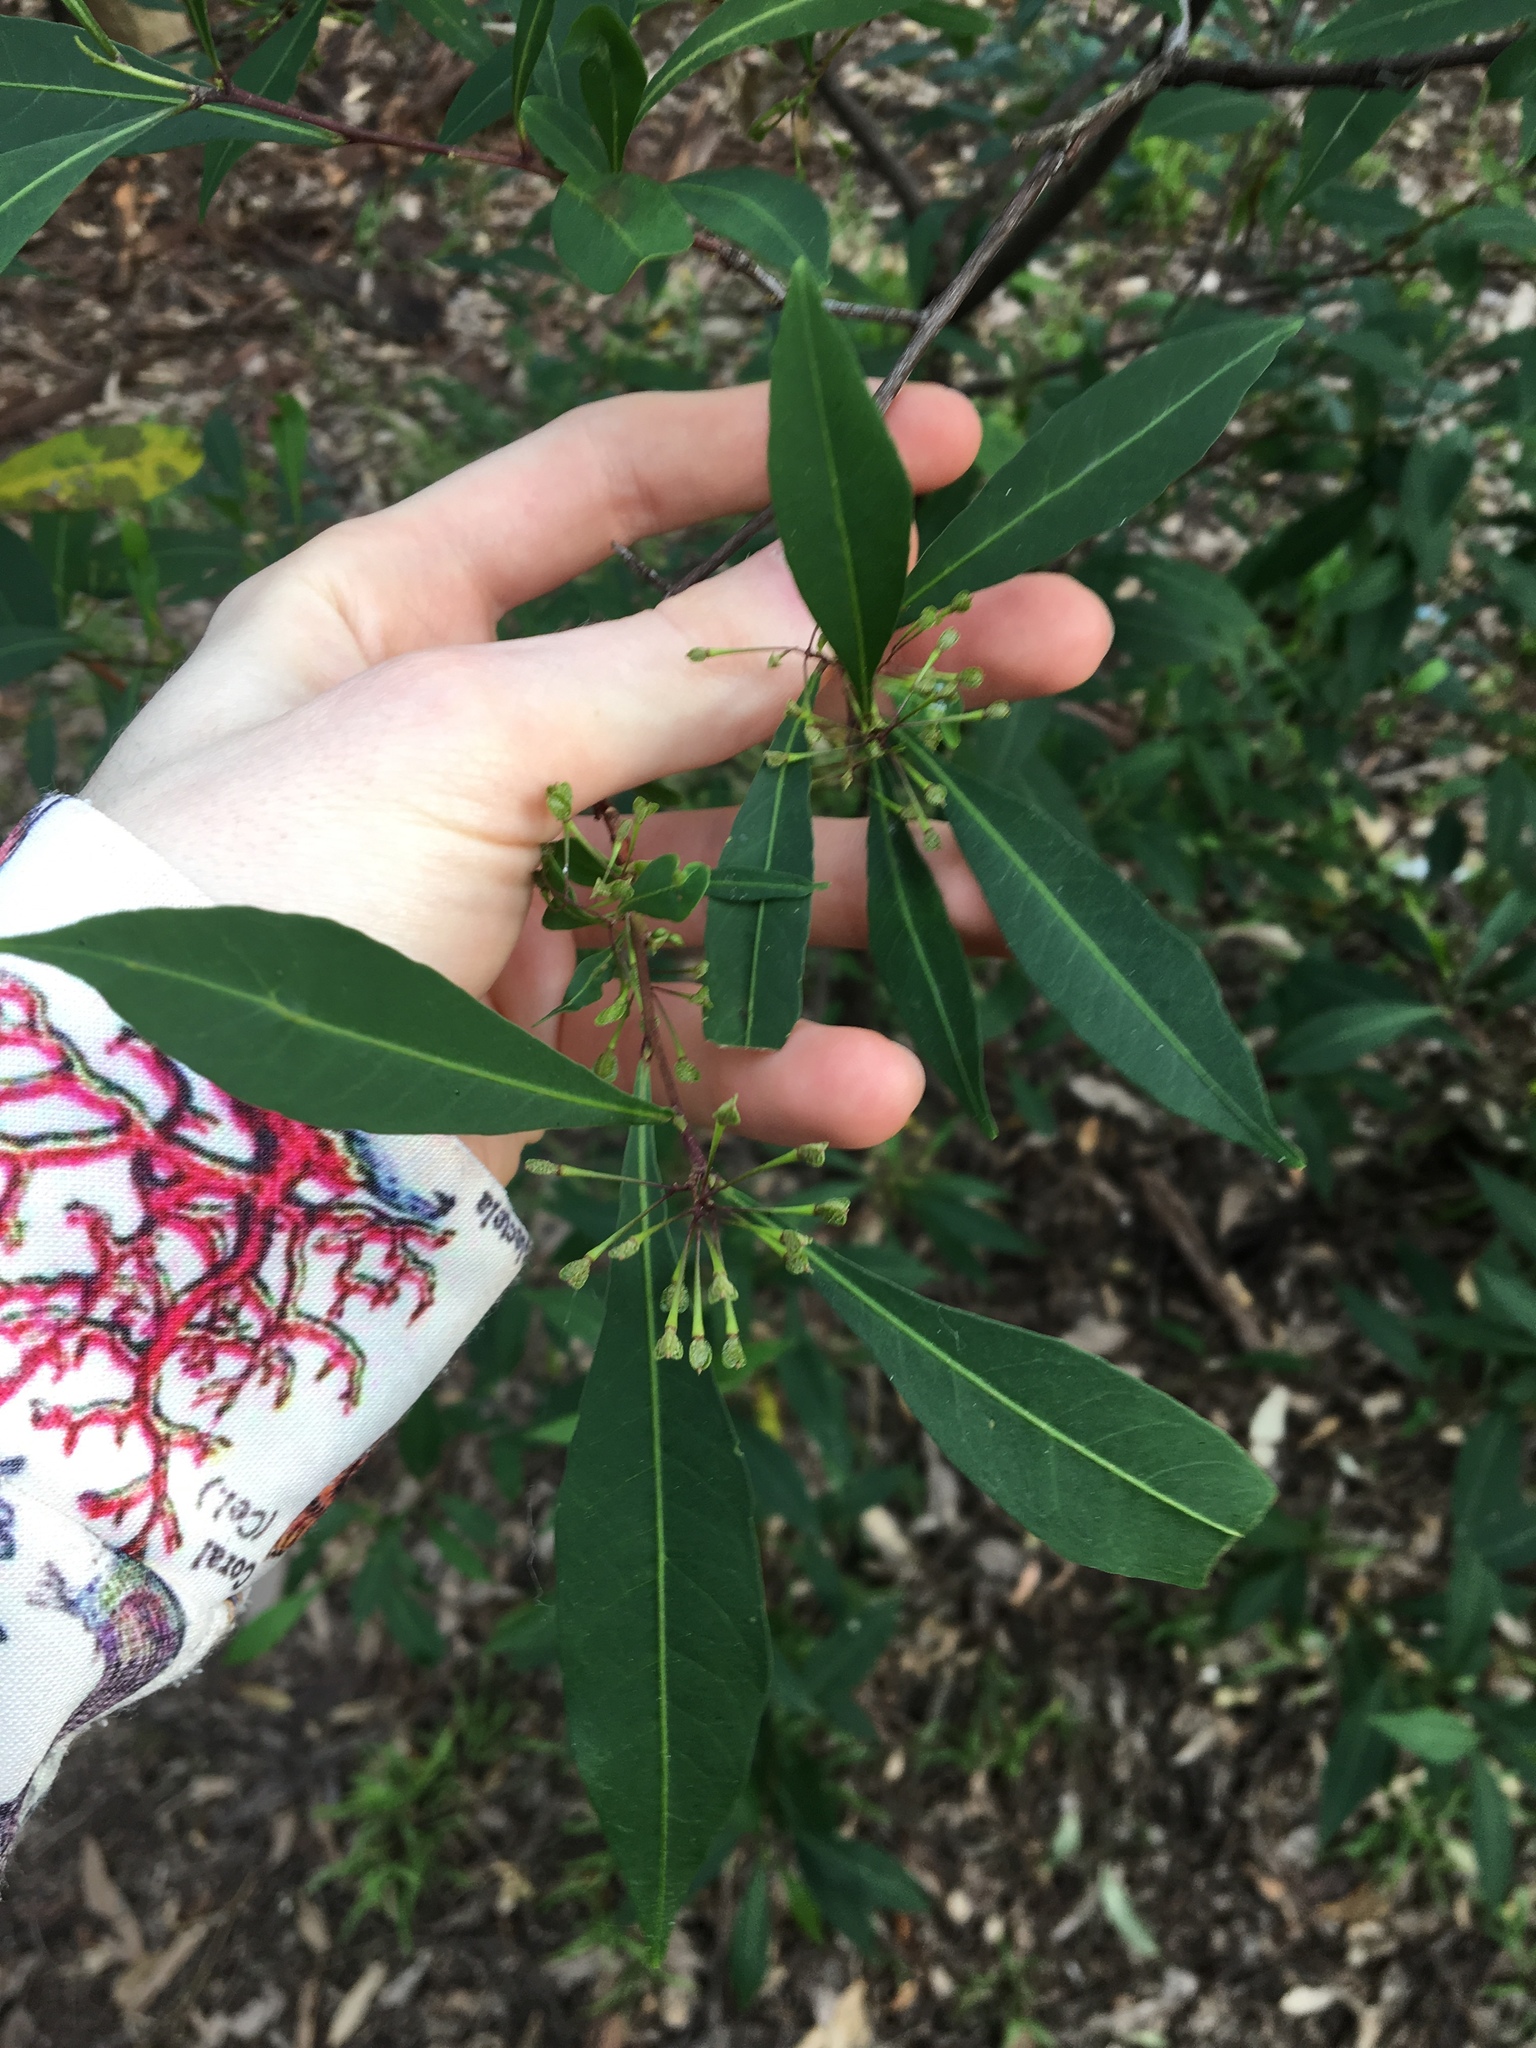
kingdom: Plantae
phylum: Tracheophyta
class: Magnoliopsida
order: Sapindales
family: Sapindaceae
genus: Dodonaea
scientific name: Dodonaea triquetra
